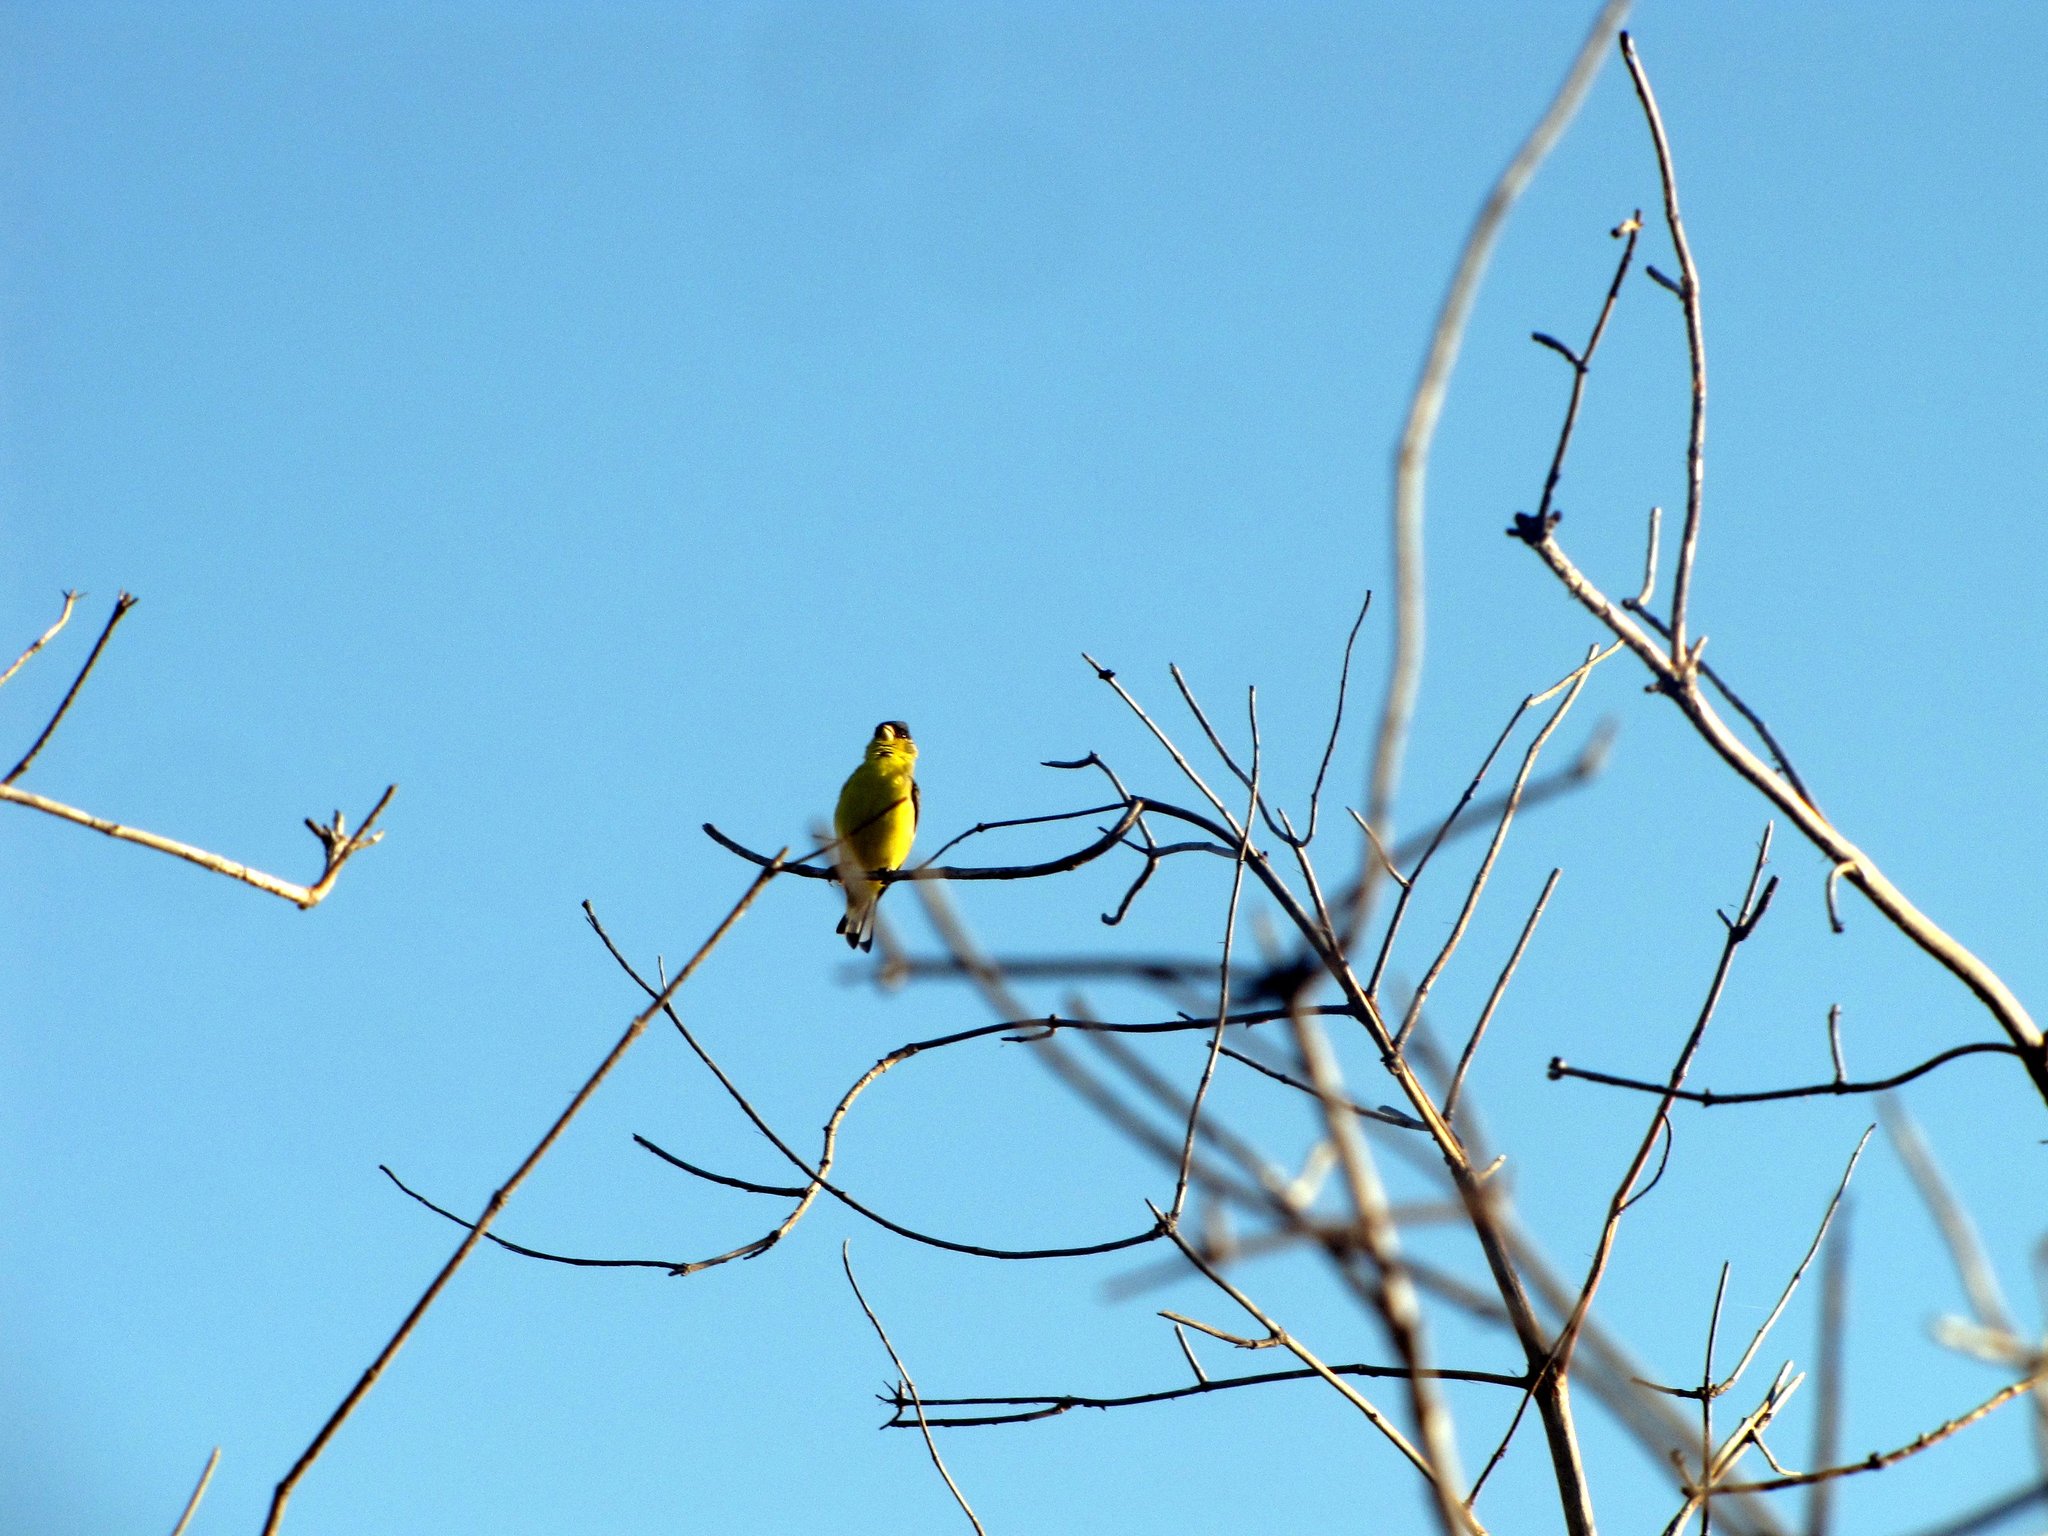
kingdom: Animalia
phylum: Chordata
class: Aves
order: Passeriformes
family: Fringillidae
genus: Spinus
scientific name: Spinus psaltria
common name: Lesser goldfinch
